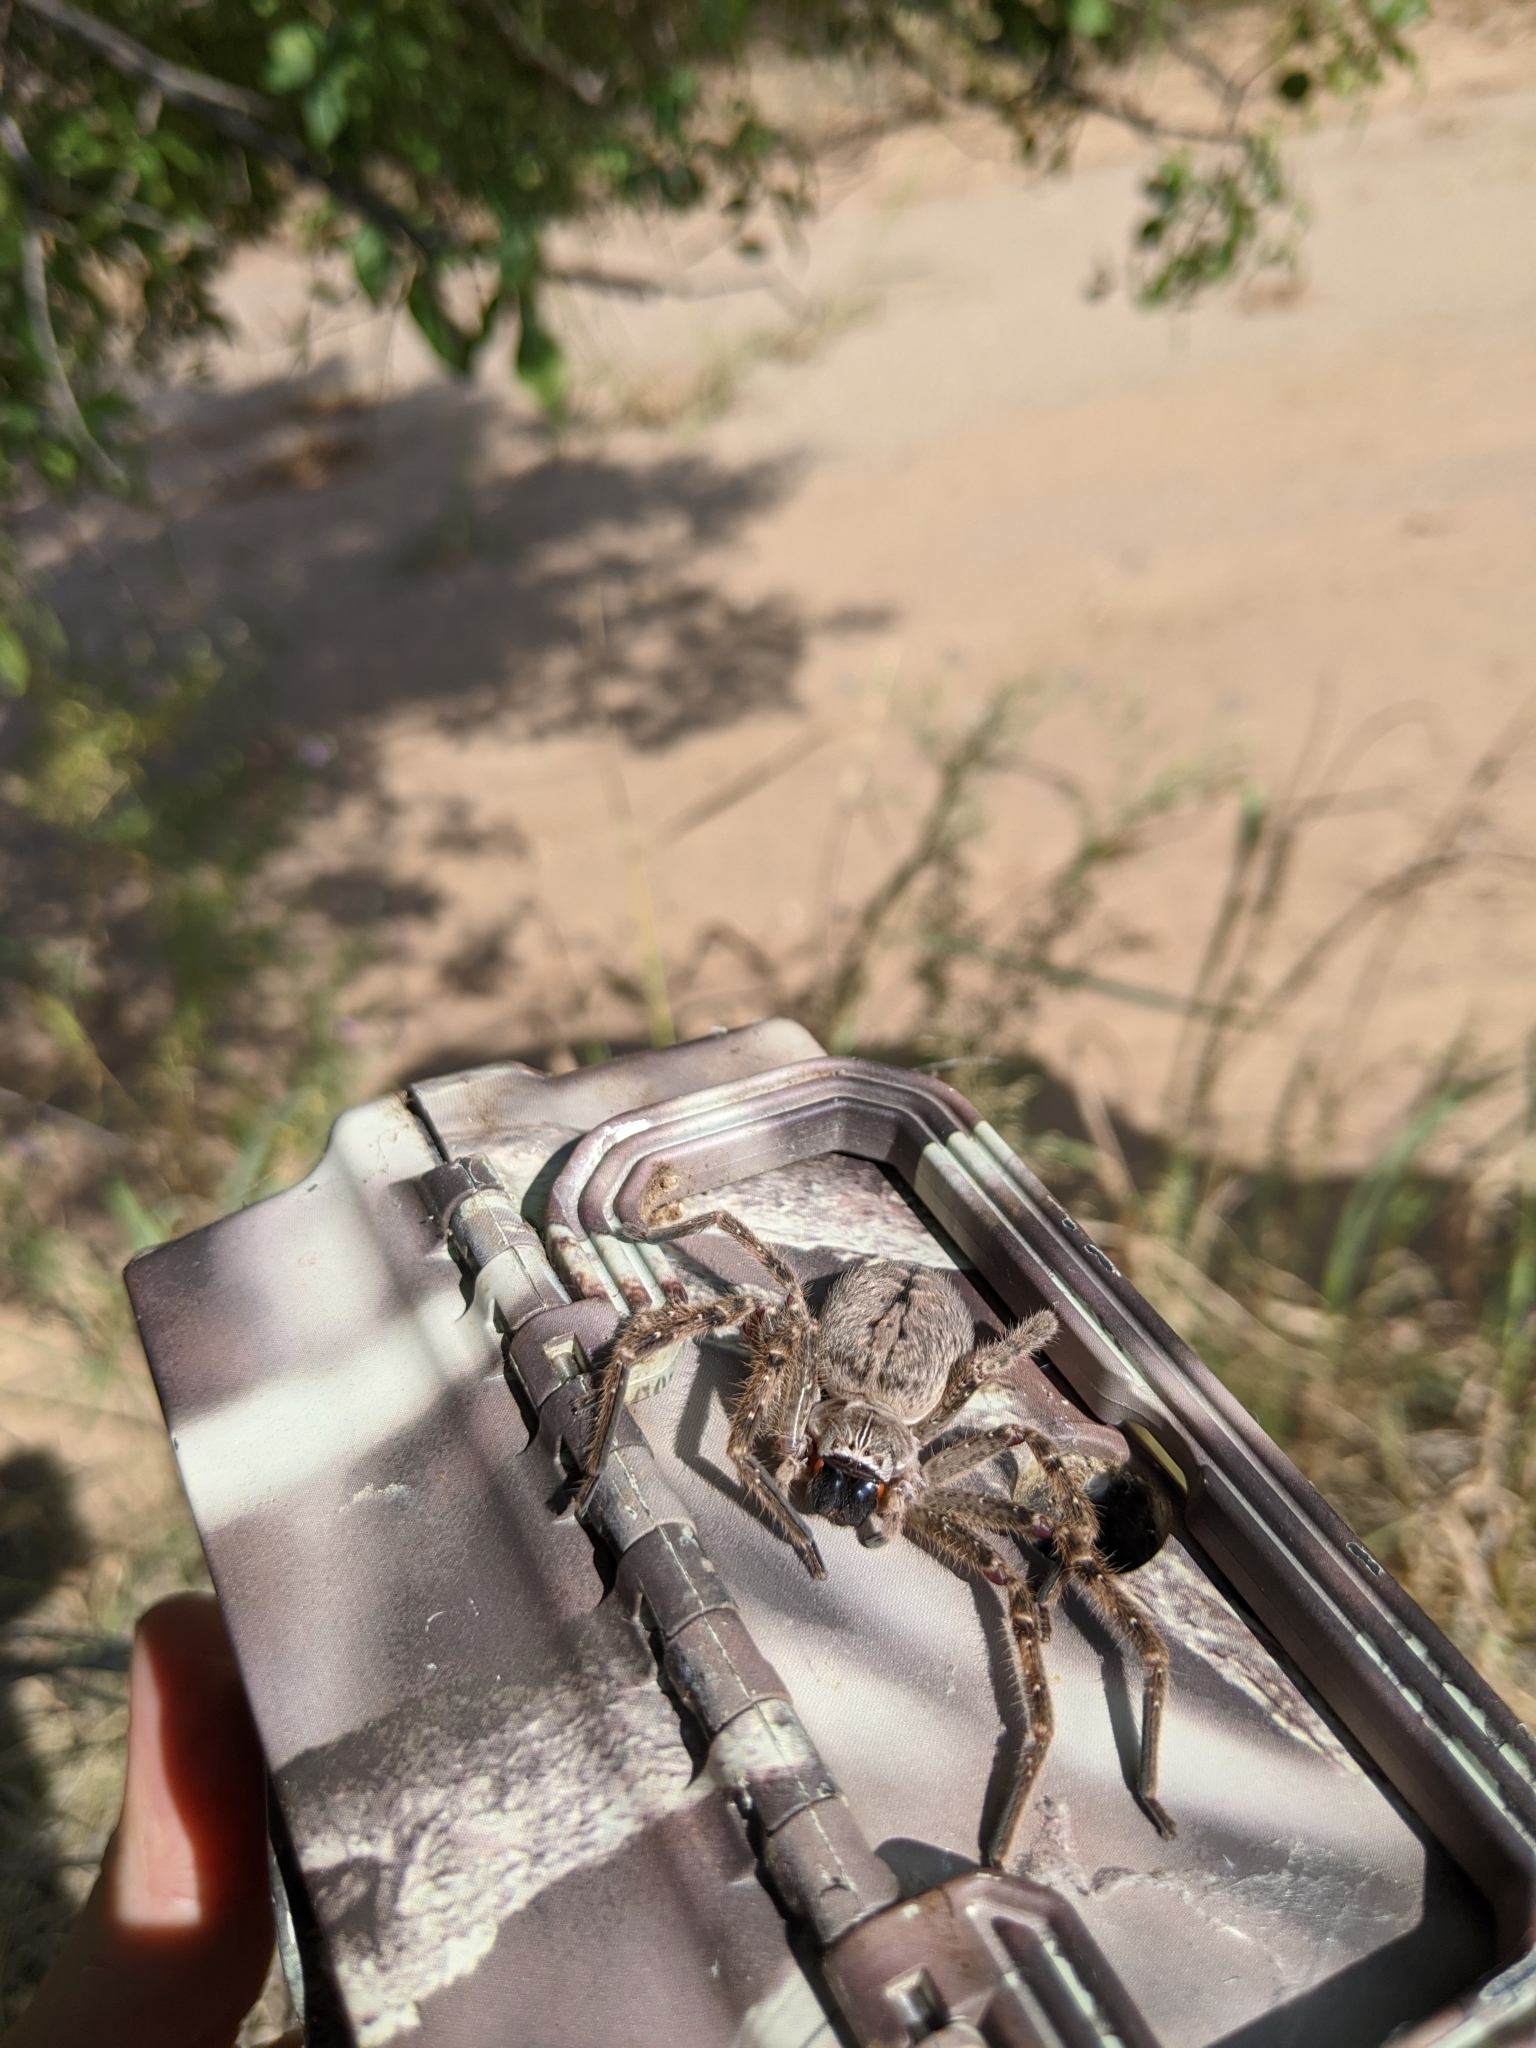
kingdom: Animalia
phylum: Arthropoda
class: Arachnida
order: Araneae
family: Sparassidae
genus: Olios
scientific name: Olios giganteus
